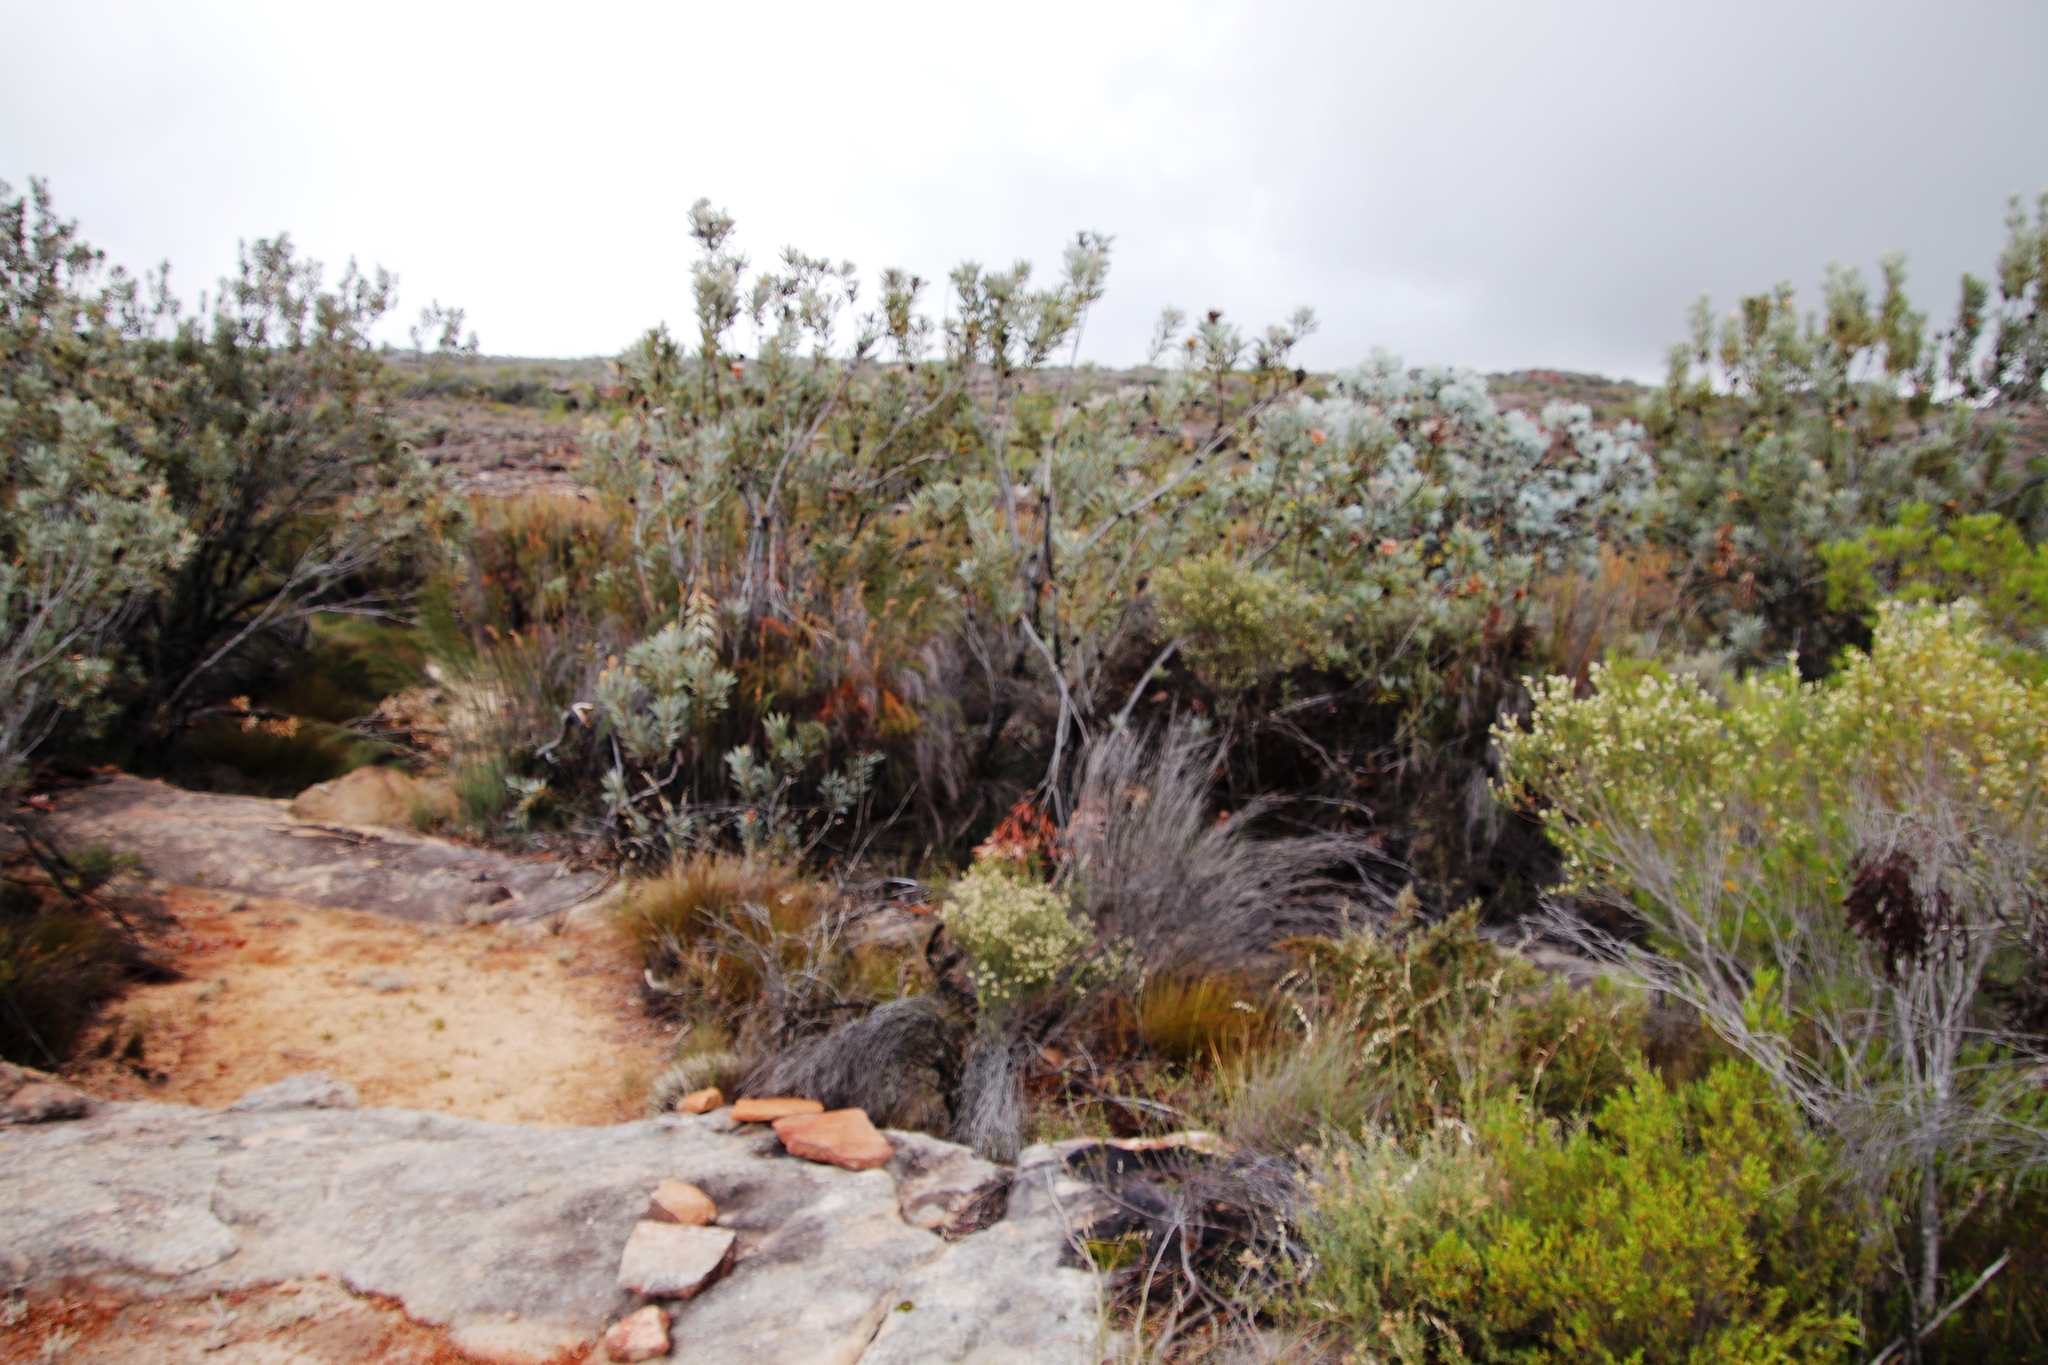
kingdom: Plantae
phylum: Tracheophyta
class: Magnoliopsida
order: Proteales
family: Proteaceae
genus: Protea
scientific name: Protea laurifolia
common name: Grey-leaf sugarbsh
